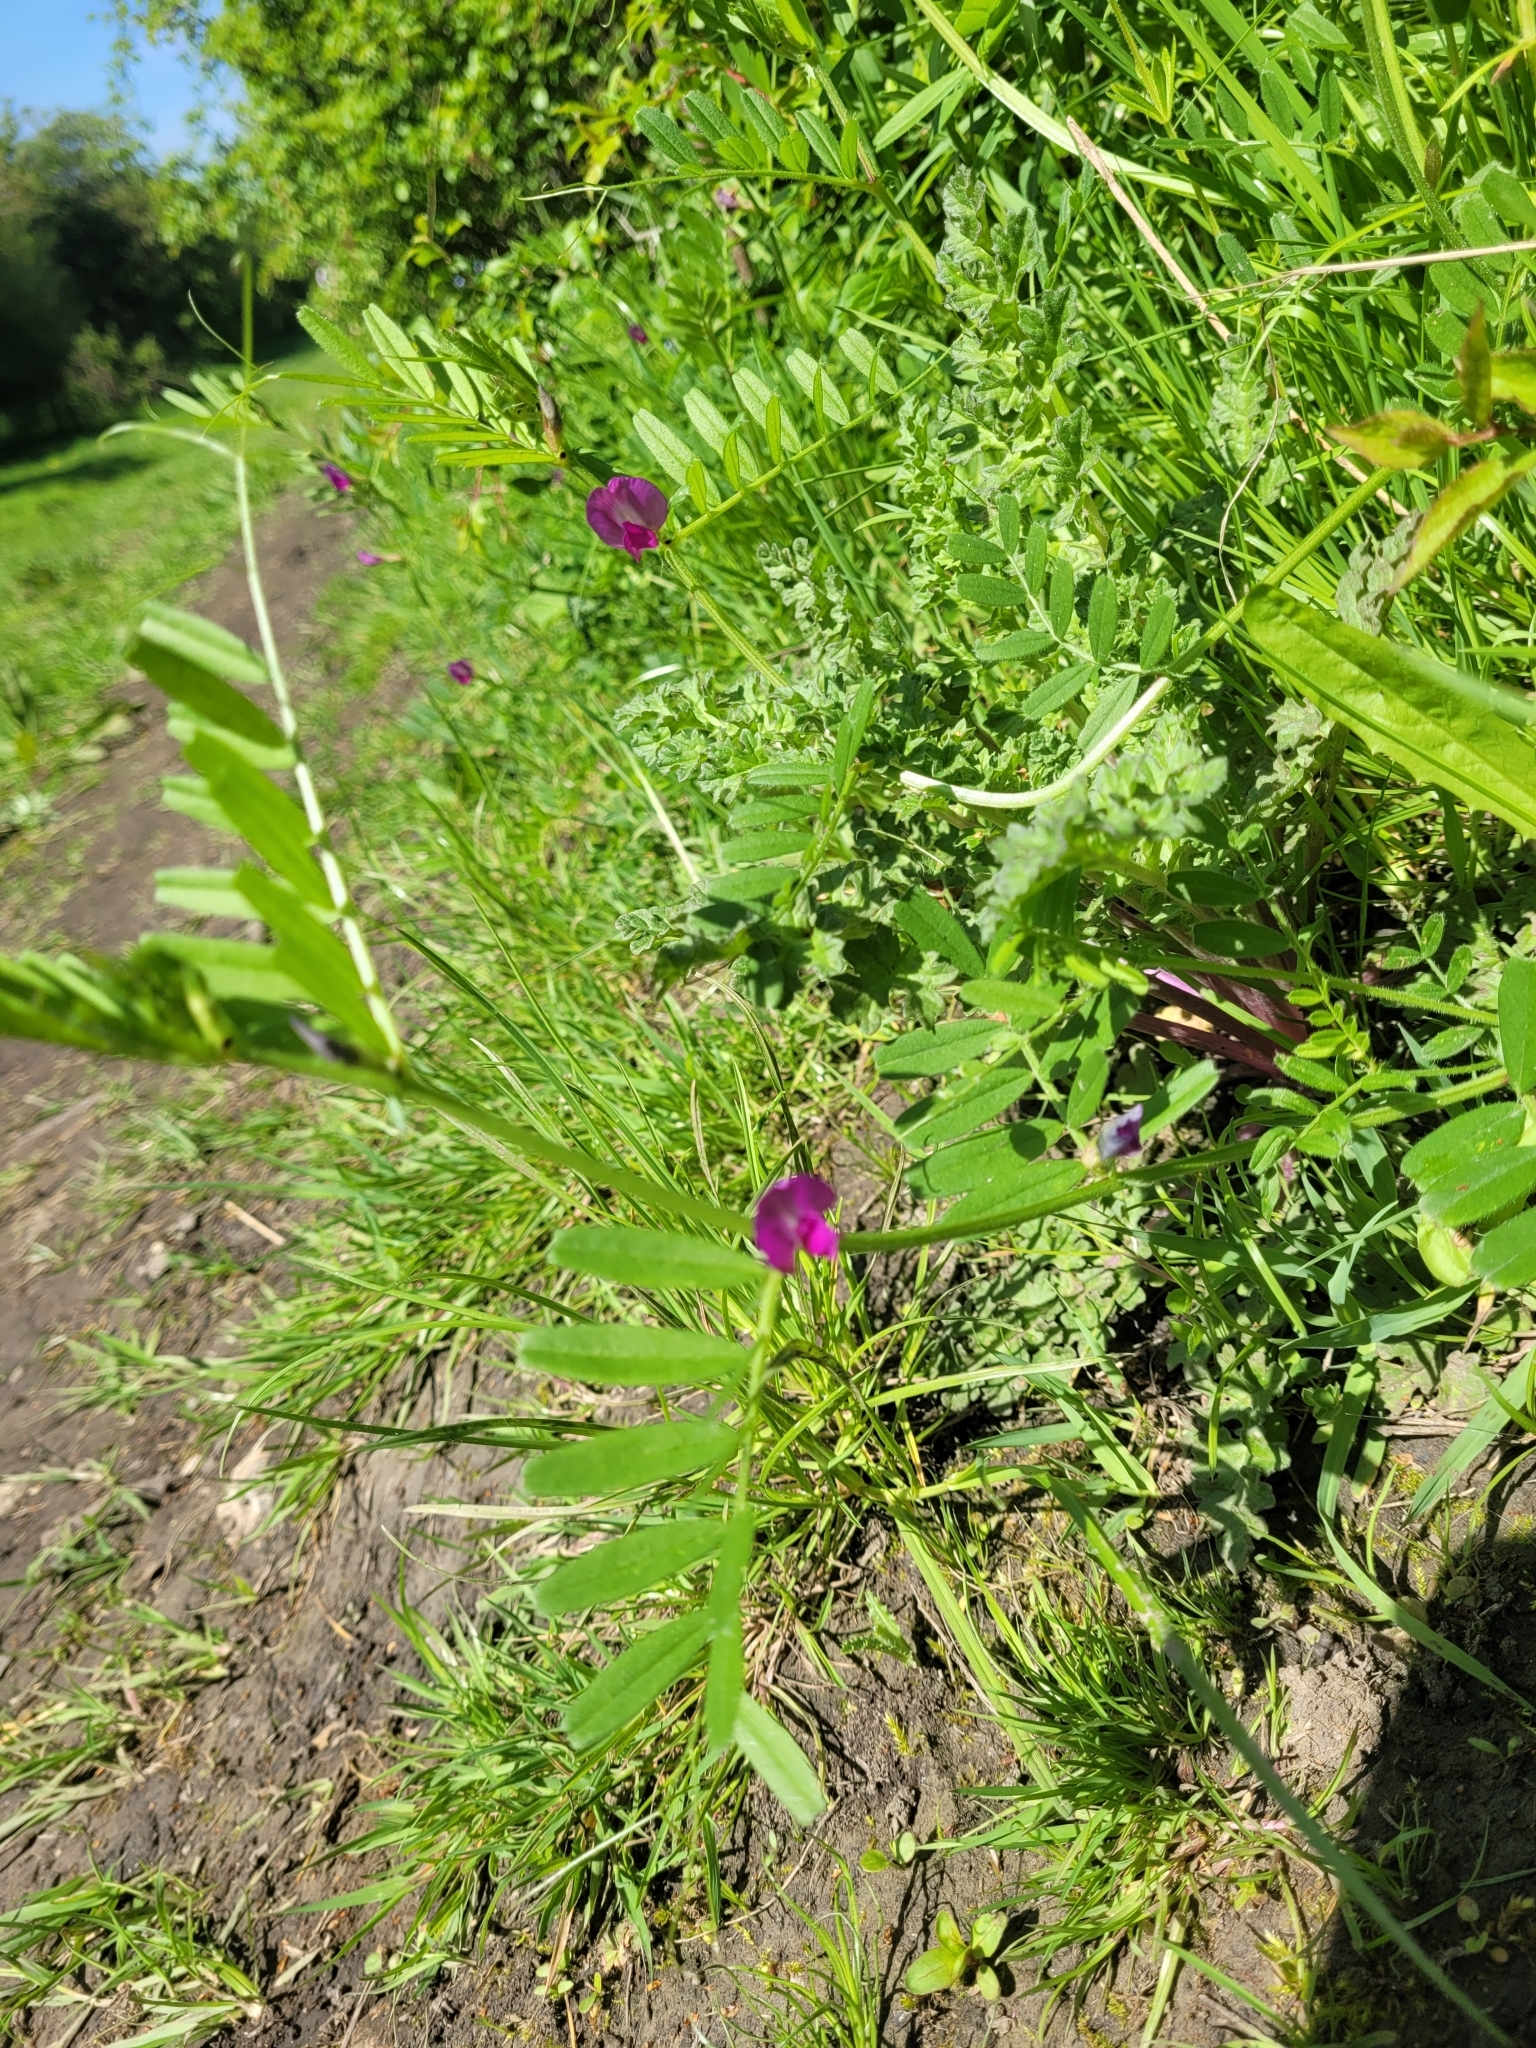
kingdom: Plantae
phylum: Tracheophyta
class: Magnoliopsida
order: Fabales
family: Fabaceae
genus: Vicia
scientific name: Vicia sativa
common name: Garden vetch
